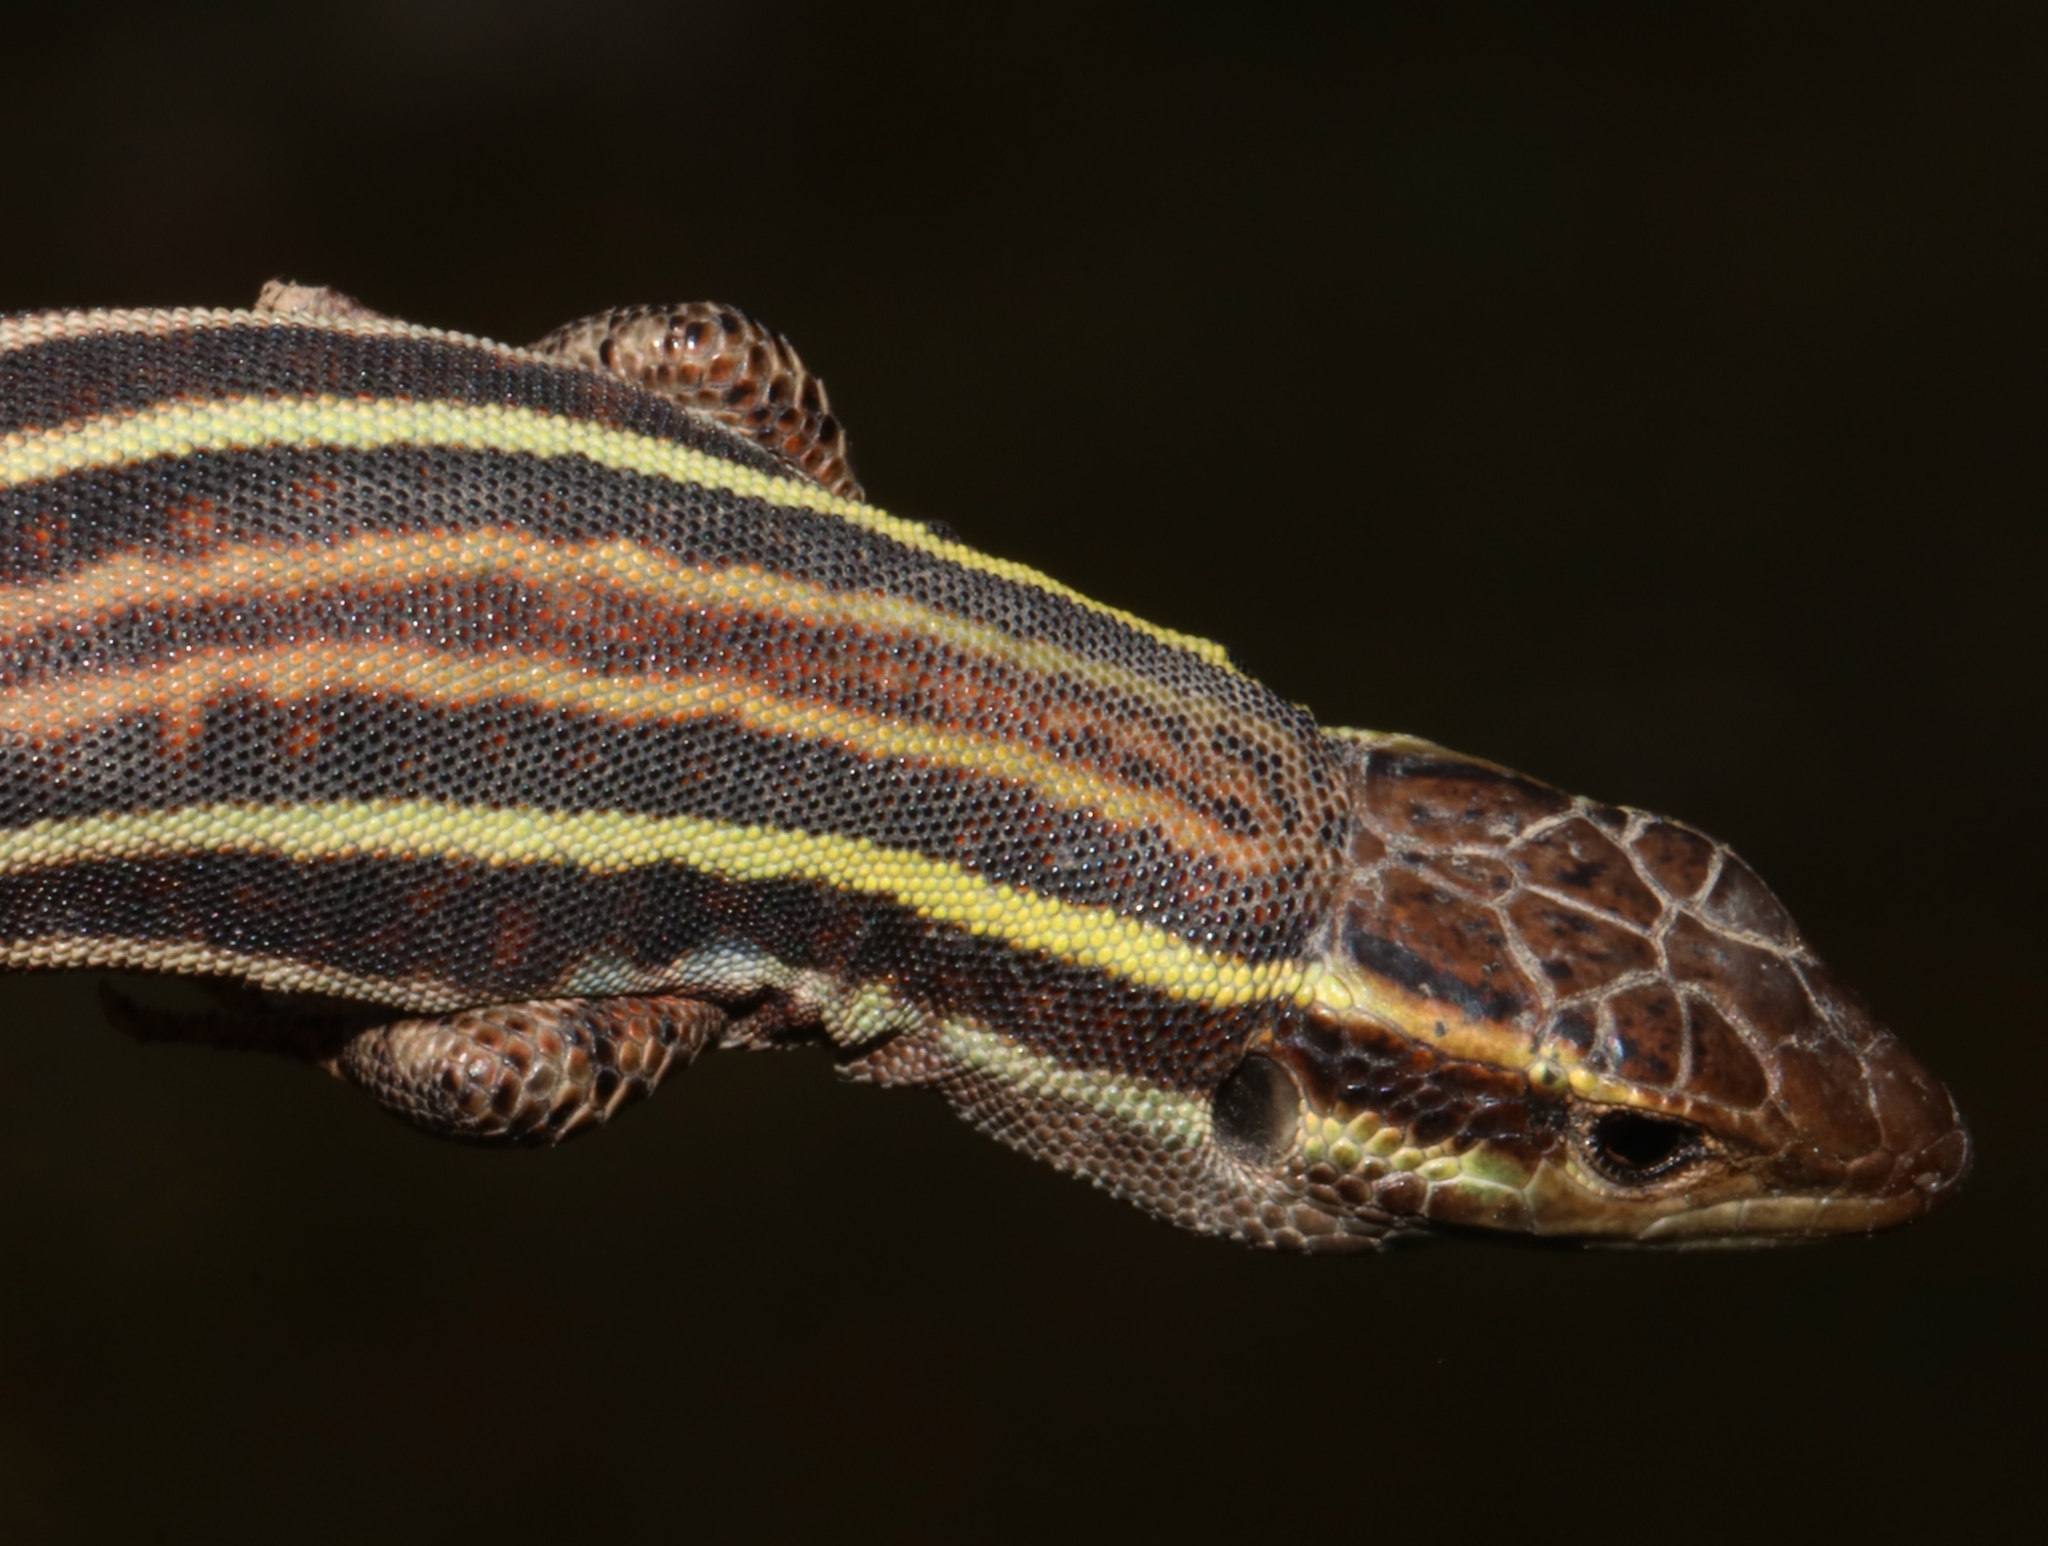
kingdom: Animalia
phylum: Chordata
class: Squamata
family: Lacertidae
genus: Podarcis
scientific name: Podarcis peloponnesiacus
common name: Peloponnese wall lizard
